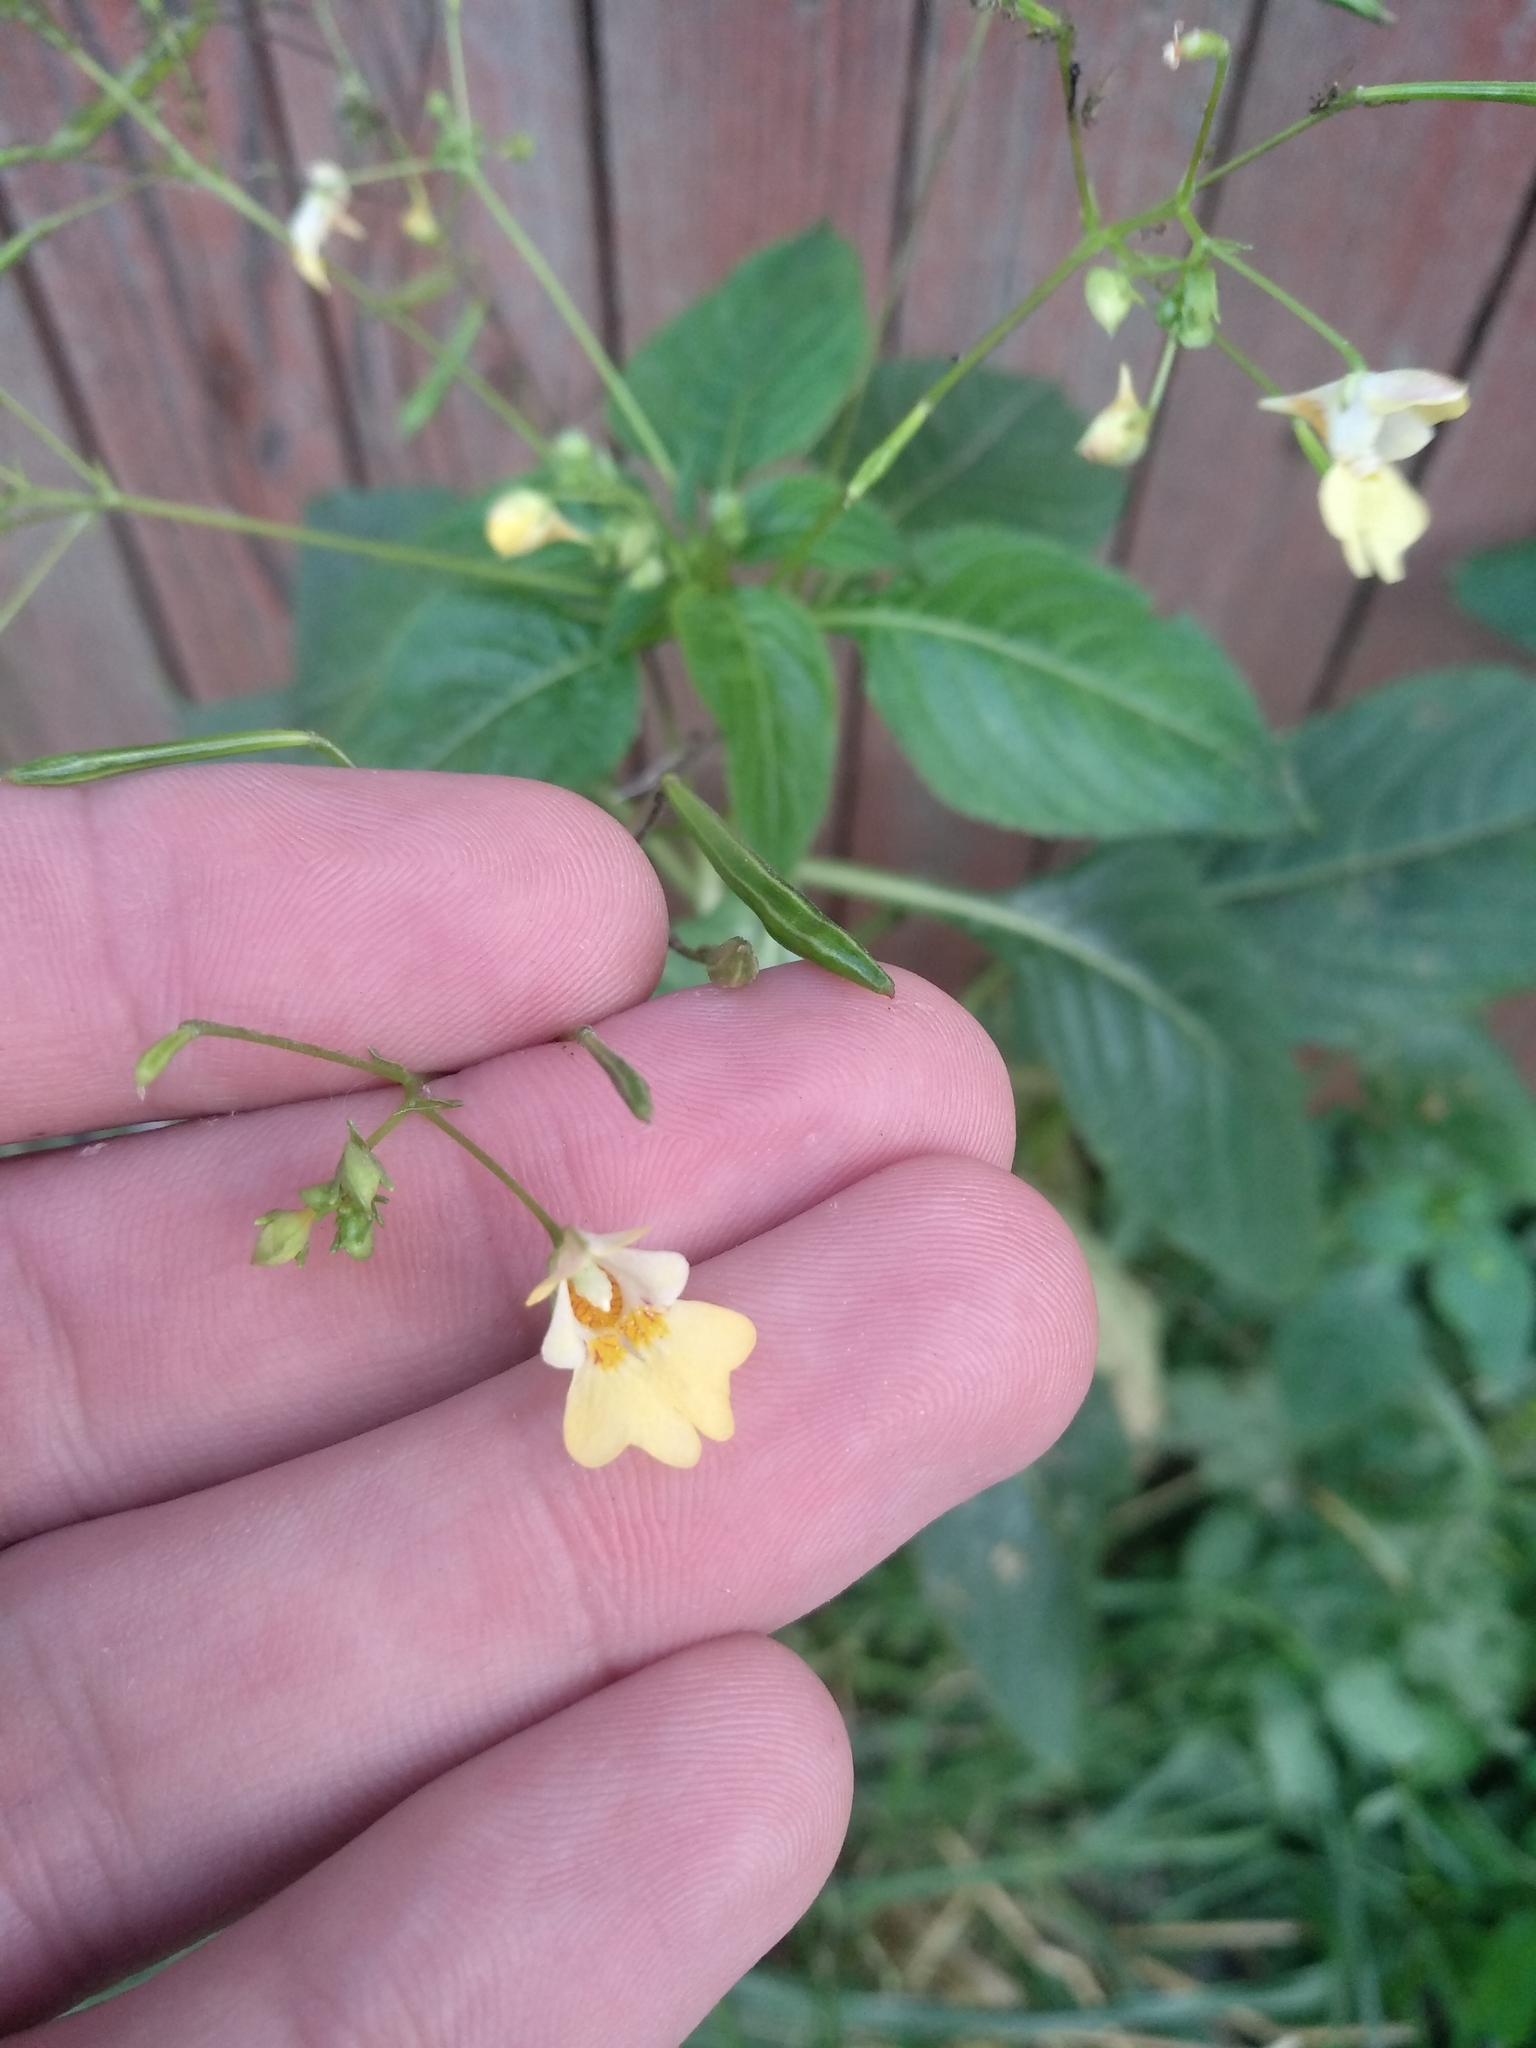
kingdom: Plantae
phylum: Tracheophyta
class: Magnoliopsida
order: Ericales
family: Balsaminaceae
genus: Impatiens
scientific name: Impatiens parviflora
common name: Small balsam
